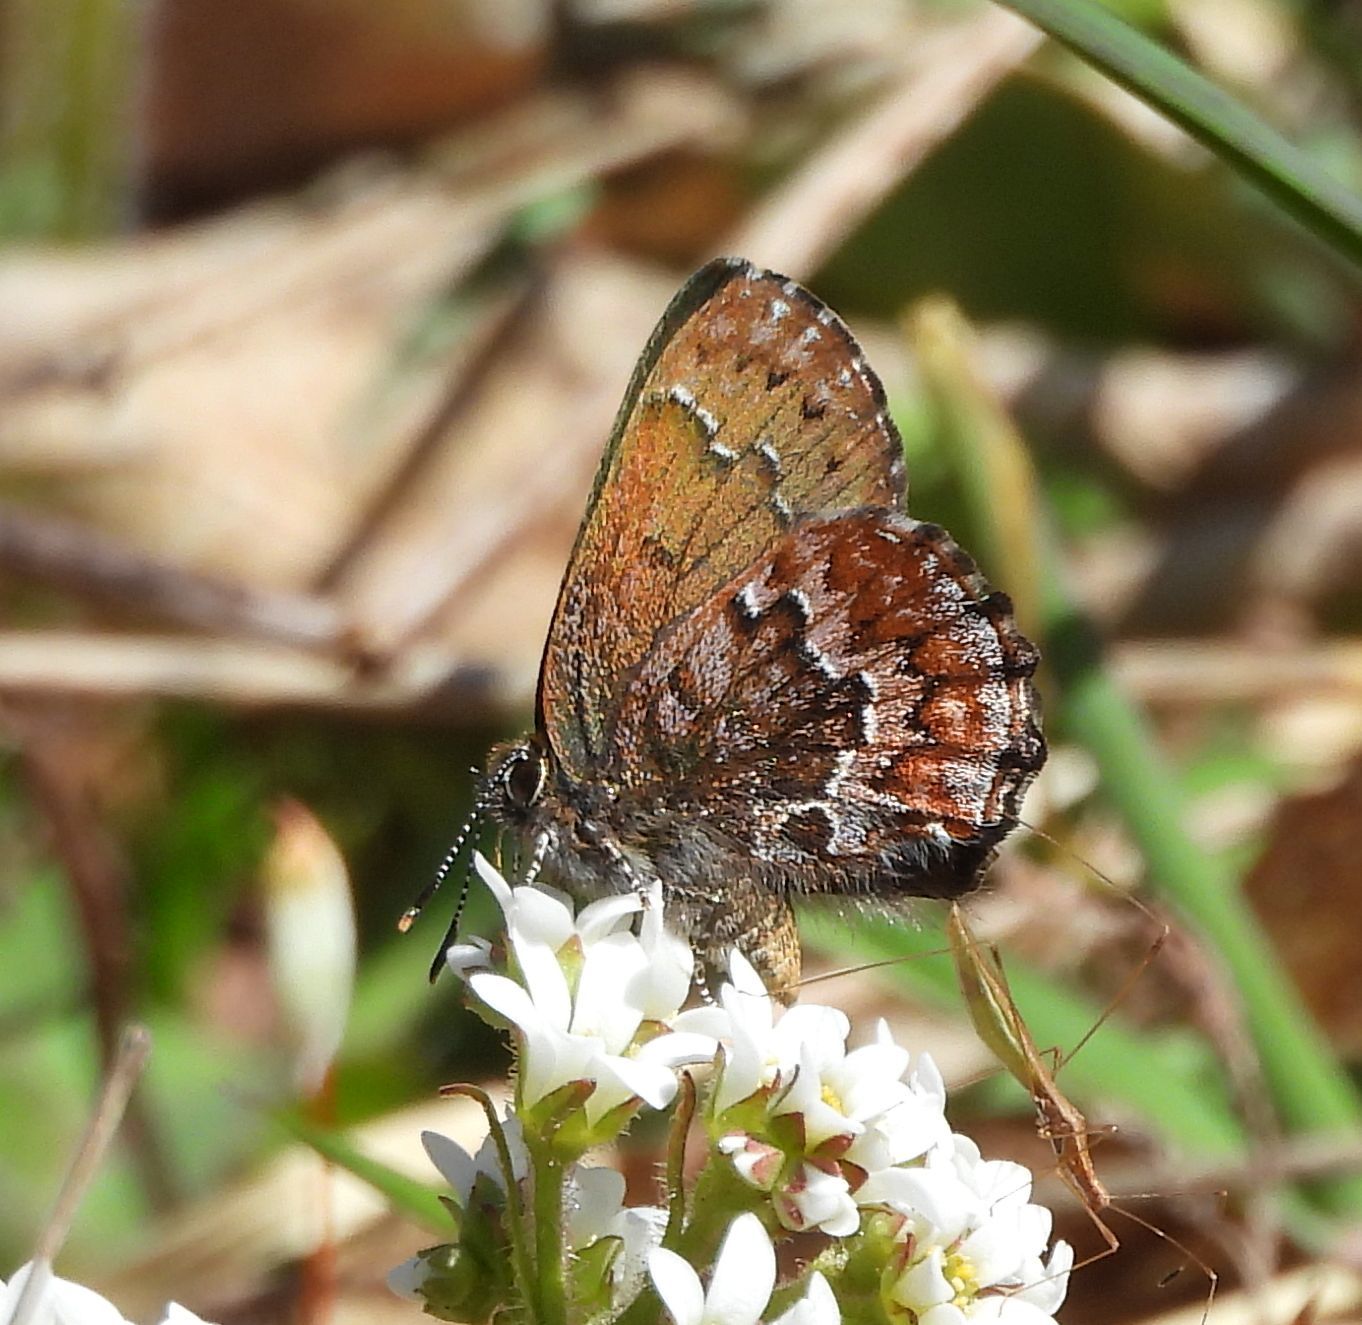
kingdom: Animalia
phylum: Arthropoda
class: Insecta
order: Lepidoptera
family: Lycaenidae
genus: Incisalia
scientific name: Incisalia niphon
